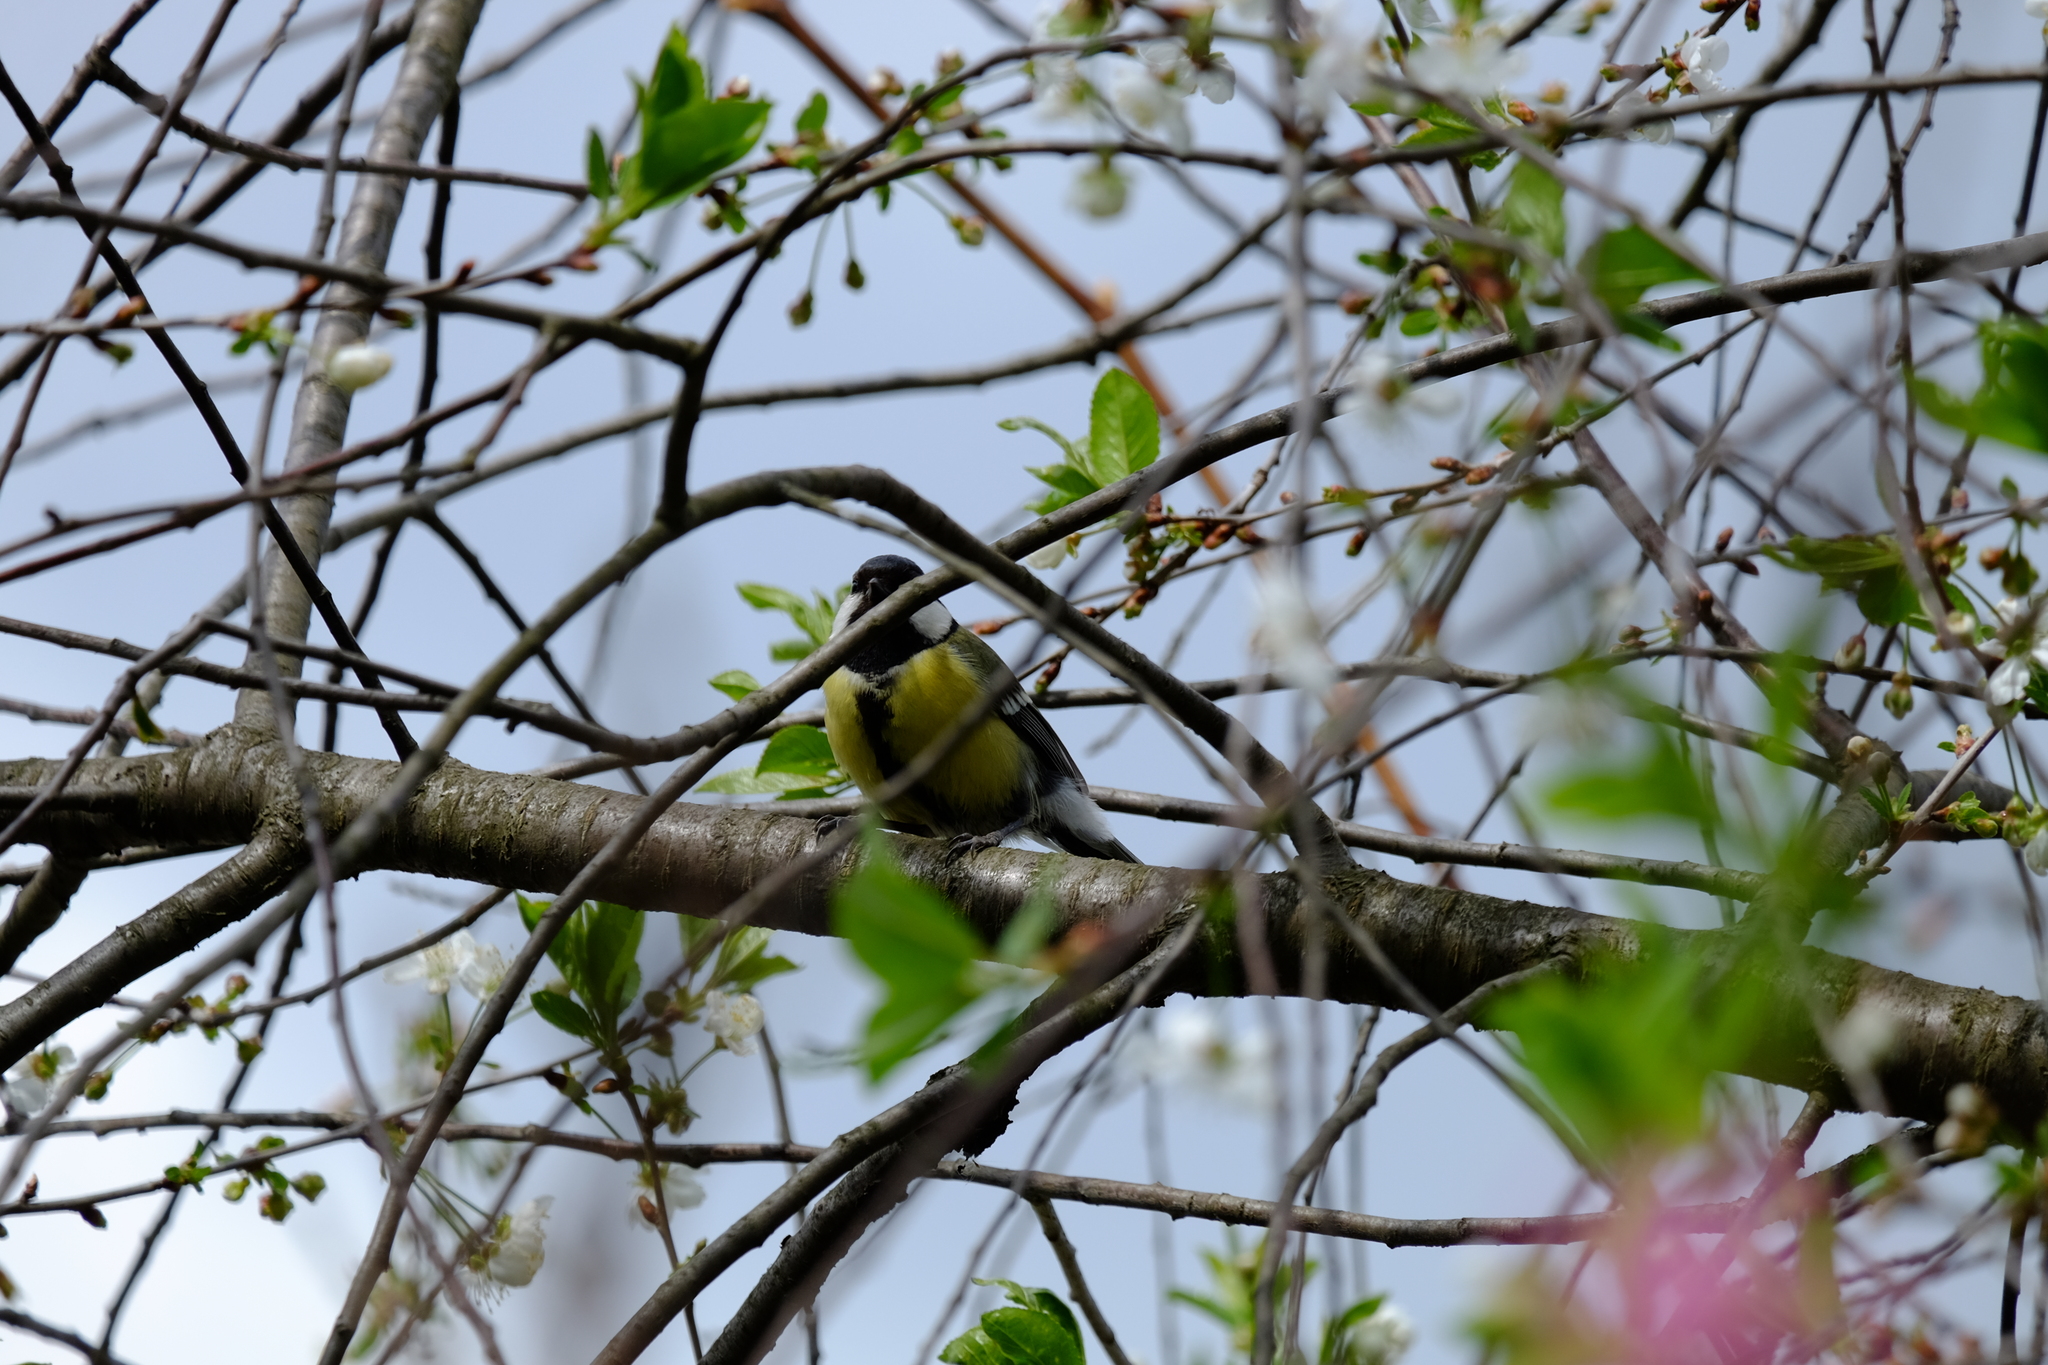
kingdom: Animalia
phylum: Chordata
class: Aves
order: Passeriformes
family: Paridae
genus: Parus
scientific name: Parus major
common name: Great tit
